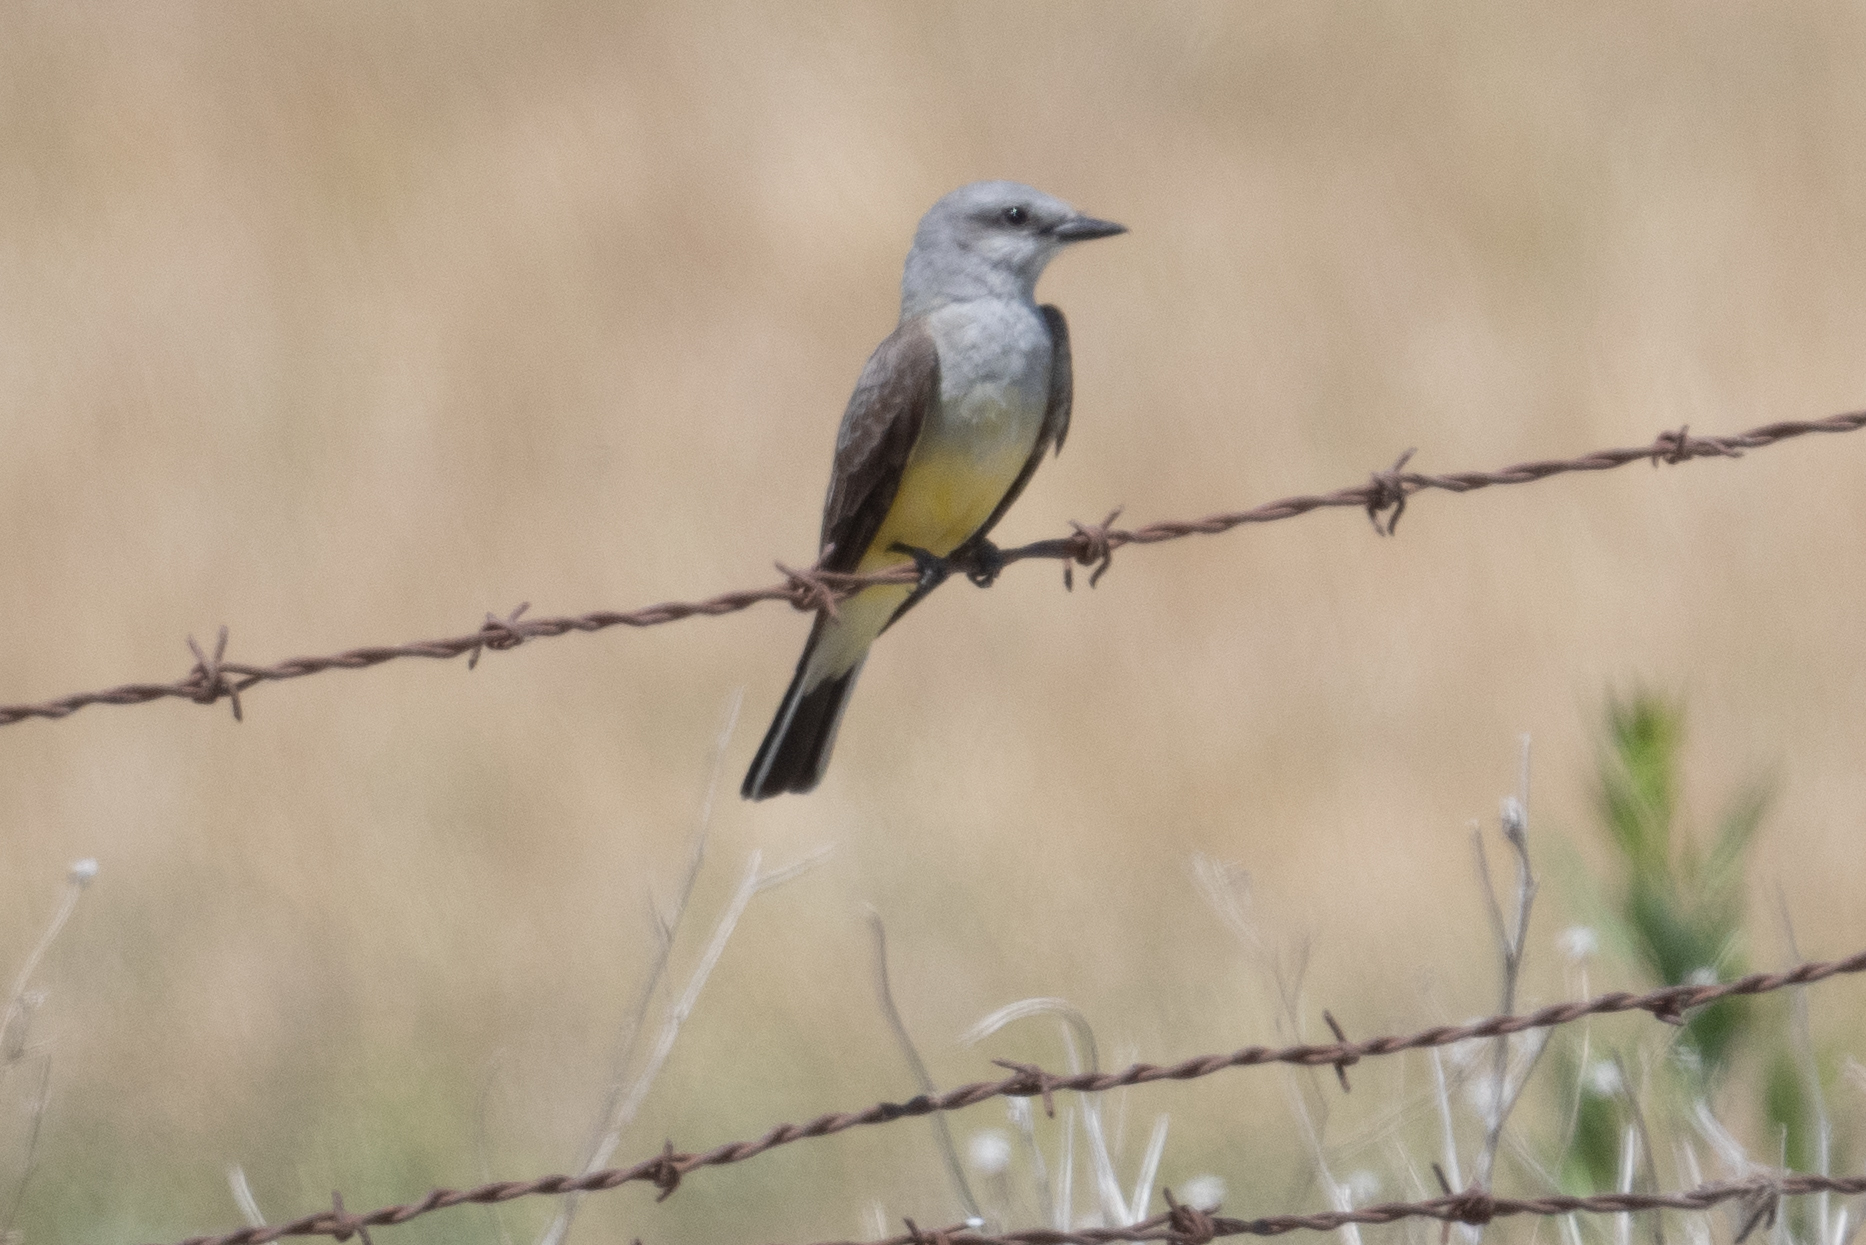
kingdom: Animalia
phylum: Chordata
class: Aves
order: Passeriformes
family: Tyrannidae
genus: Tyrannus
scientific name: Tyrannus verticalis
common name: Western kingbird
